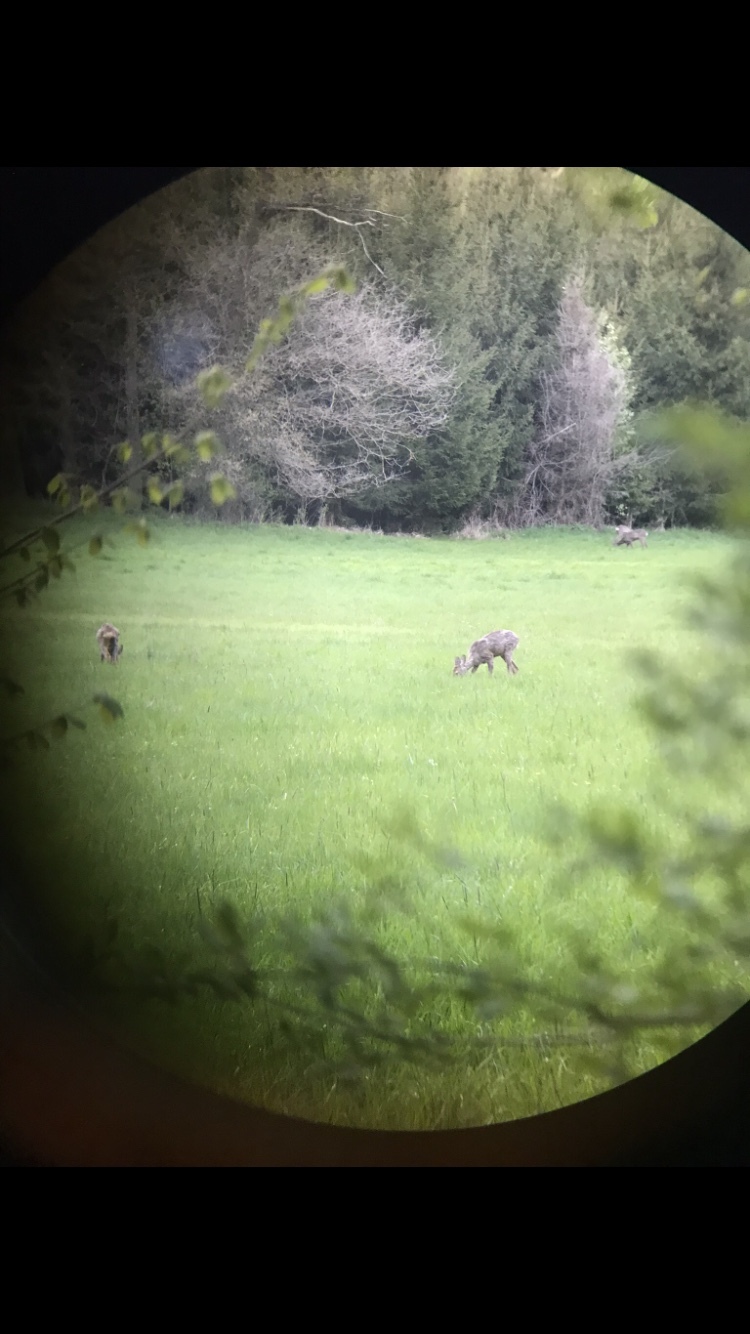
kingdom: Animalia
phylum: Chordata
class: Mammalia
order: Artiodactyla
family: Cervidae
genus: Capreolus
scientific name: Capreolus capreolus
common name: Western roe deer
